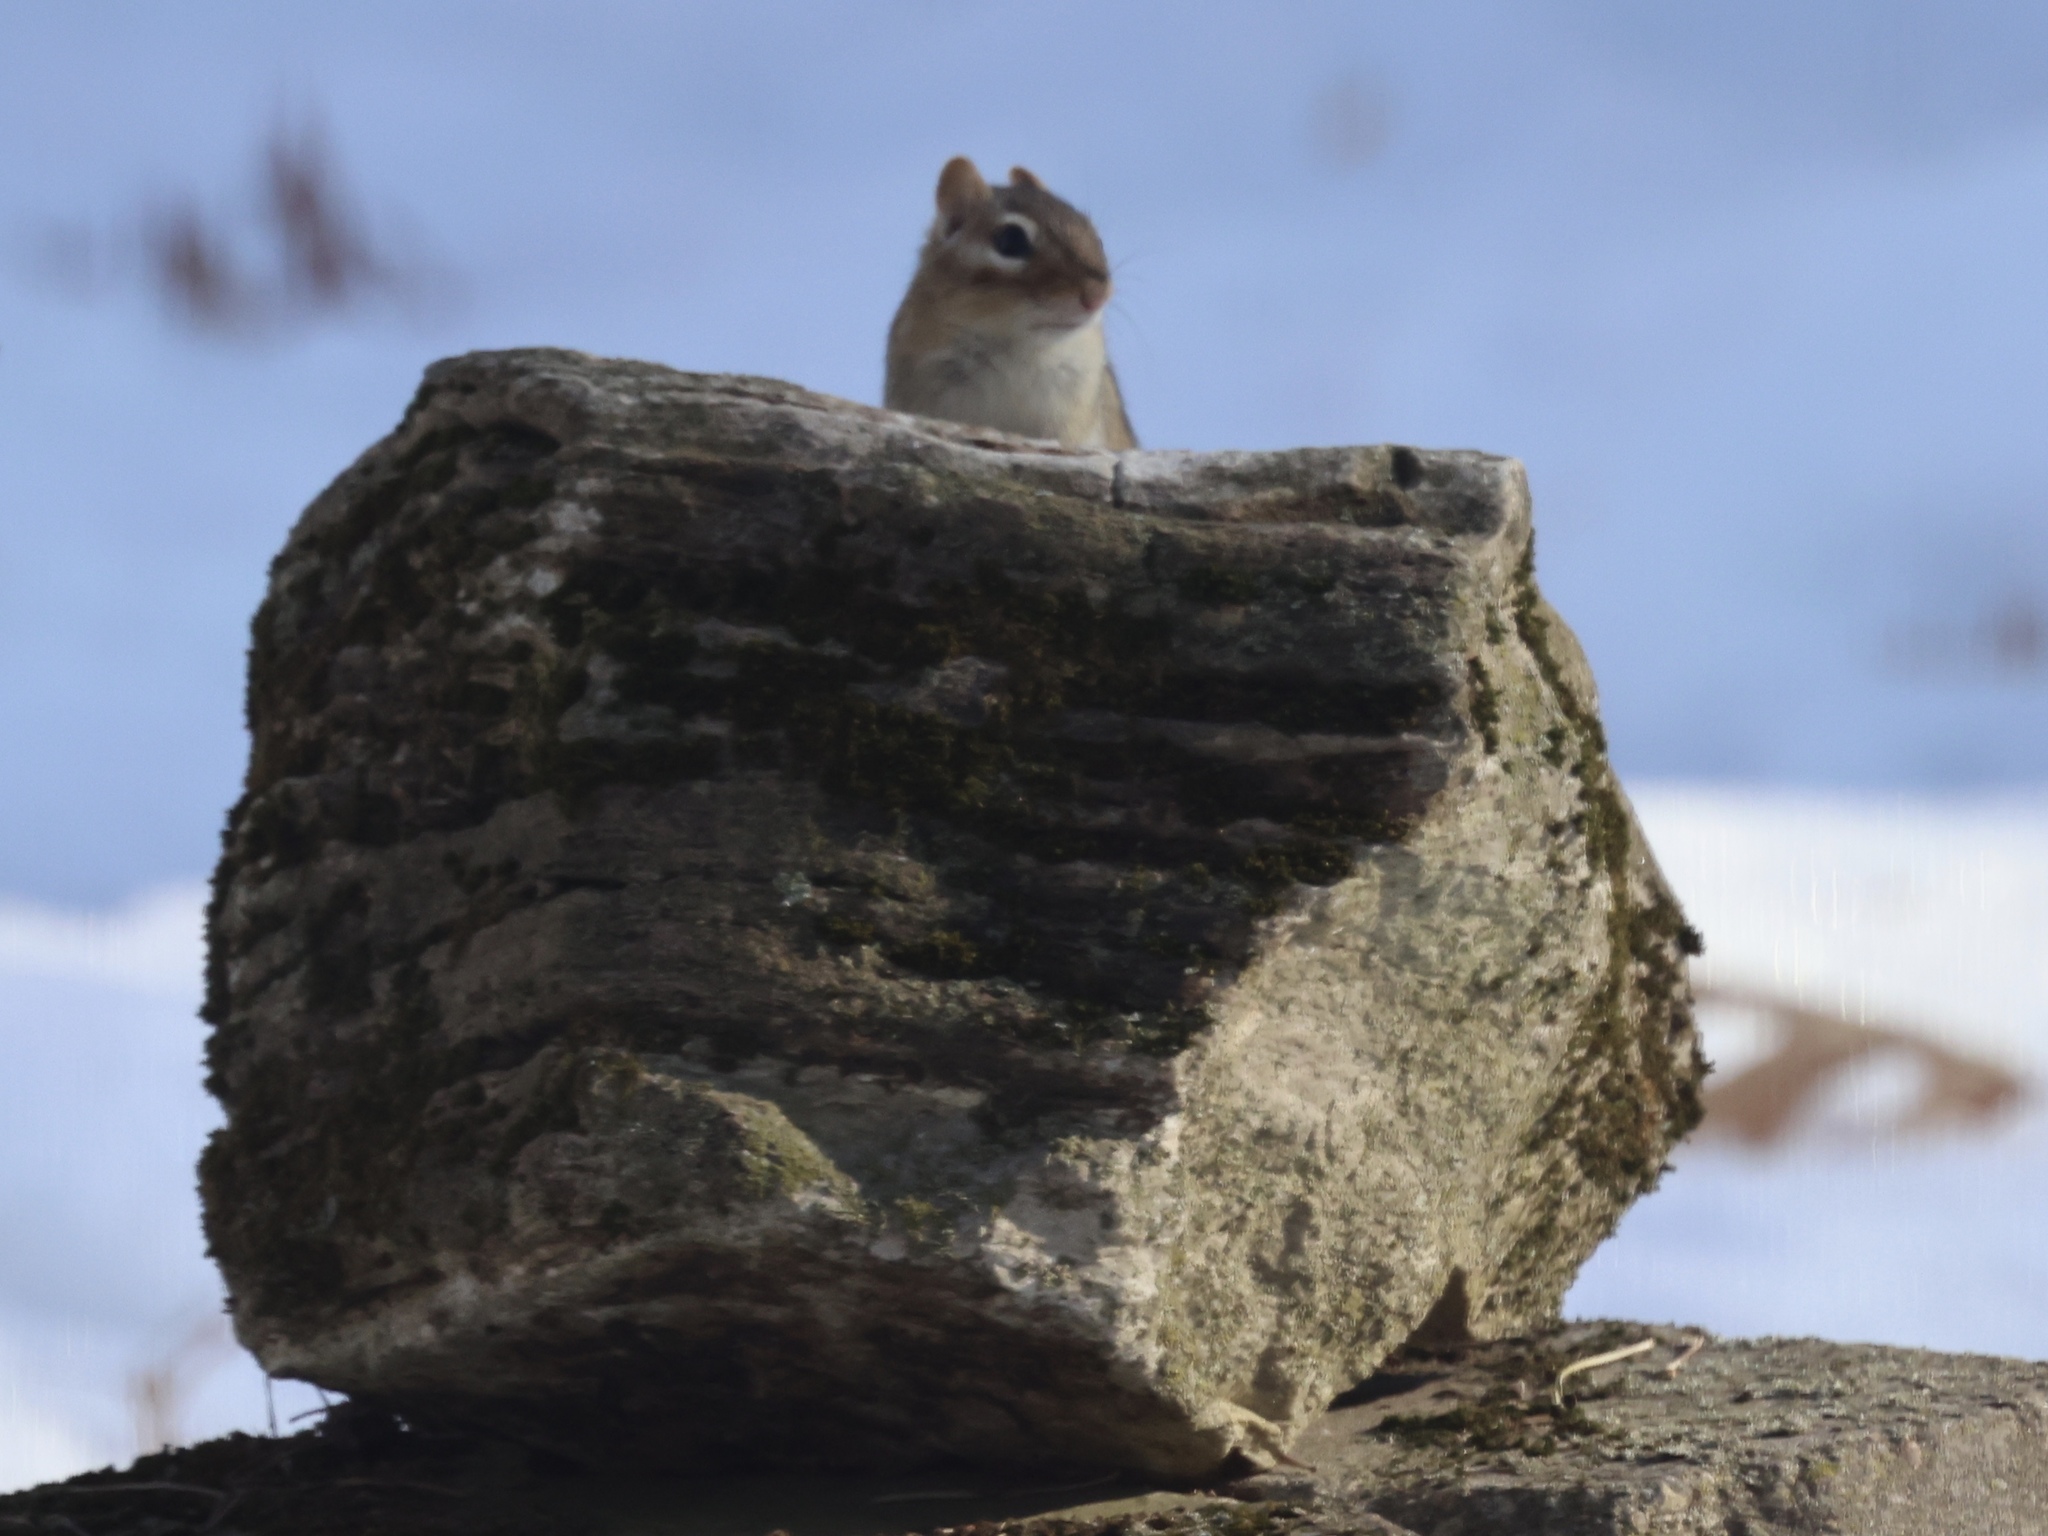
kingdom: Animalia
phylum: Chordata
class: Mammalia
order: Rodentia
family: Sciuridae
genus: Tamias
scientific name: Tamias striatus
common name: Eastern chipmunk
